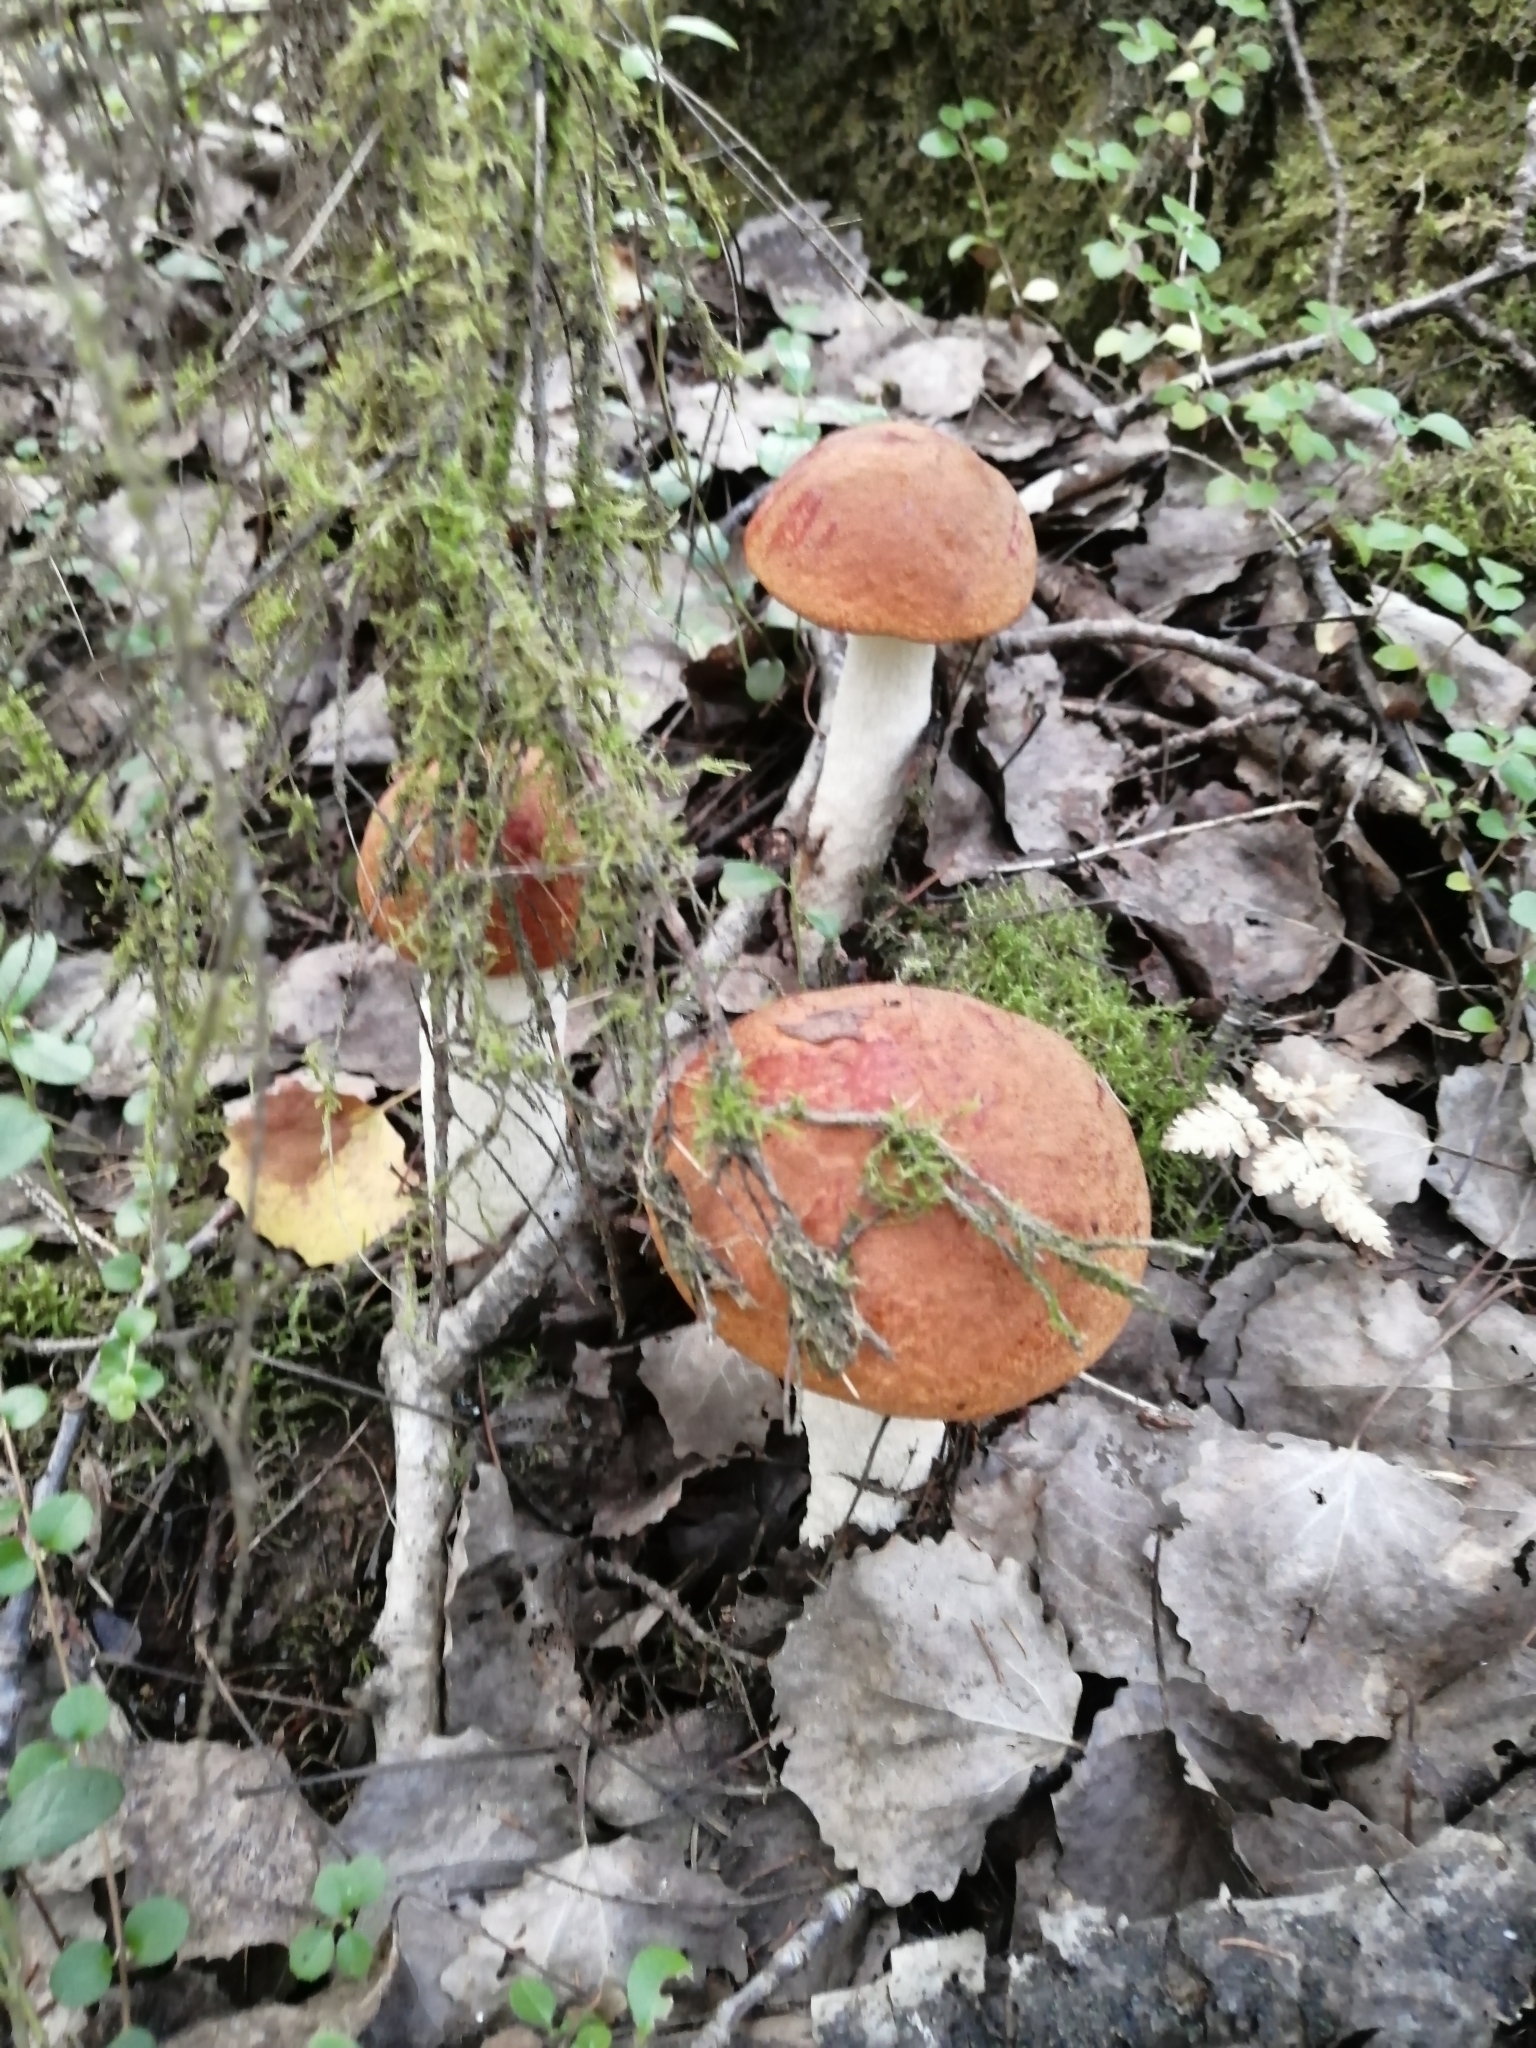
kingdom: Fungi
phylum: Basidiomycota
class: Agaricomycetes
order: Boletales
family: Boletaceae
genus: Leccinum
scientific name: Leccinum albostipitatum
